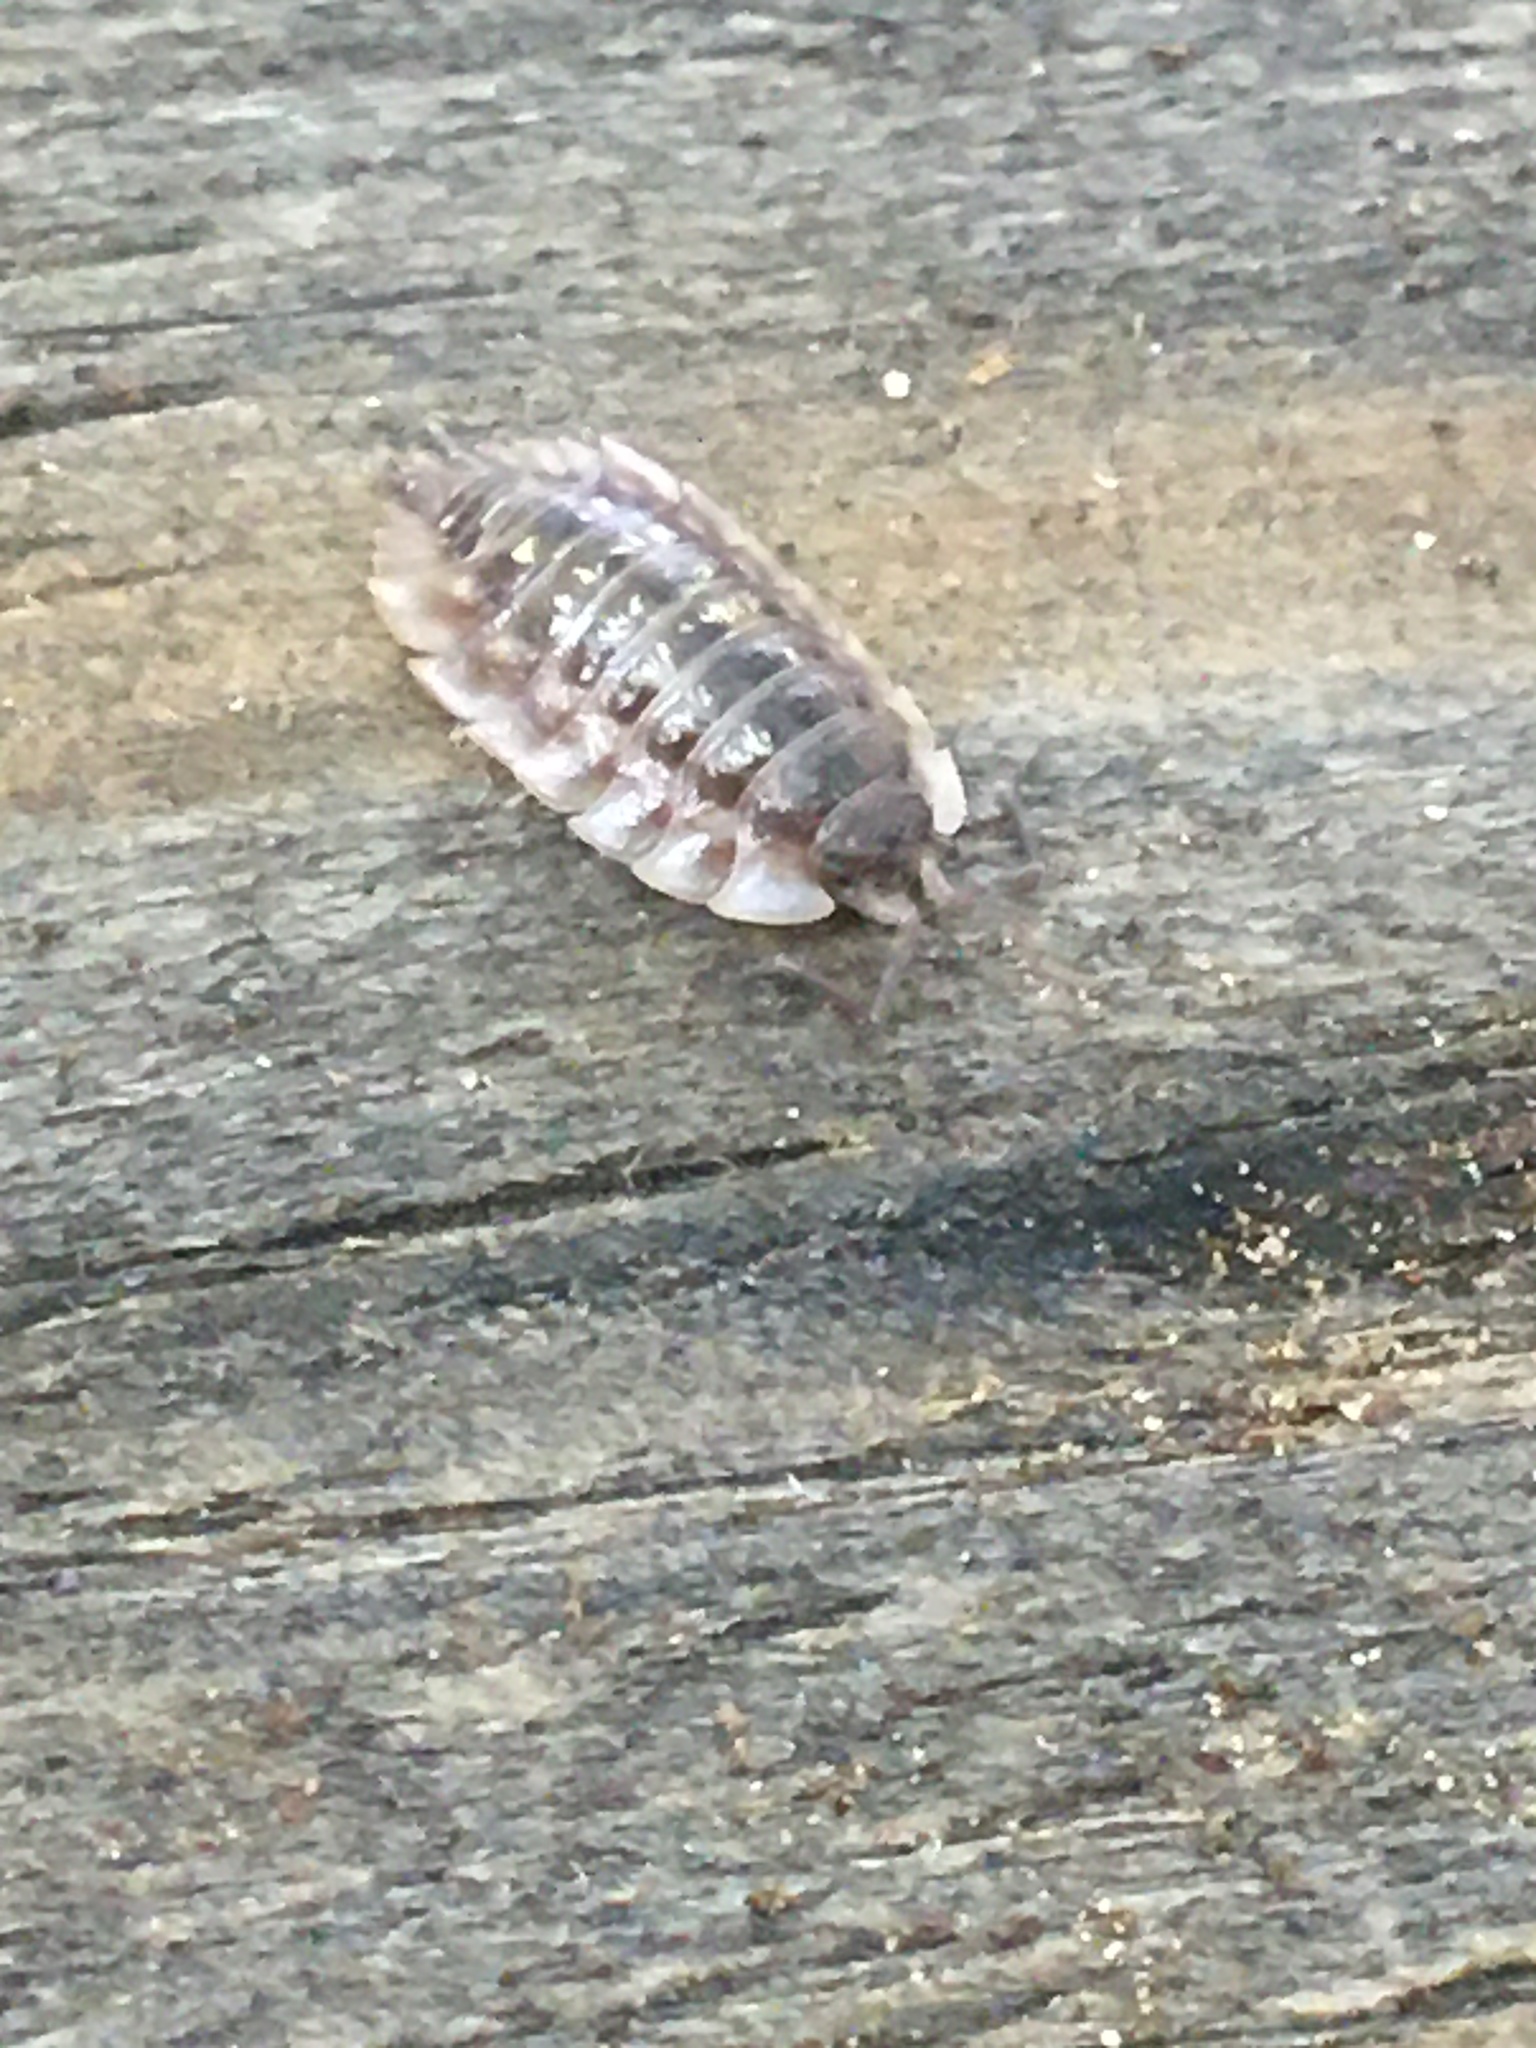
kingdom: Animalia
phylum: Arthropoda
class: Malacostraca
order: Isopoda
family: Oniscidae
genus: Oniscus
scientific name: Oniscus asellus
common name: Common shiny woodlouse
